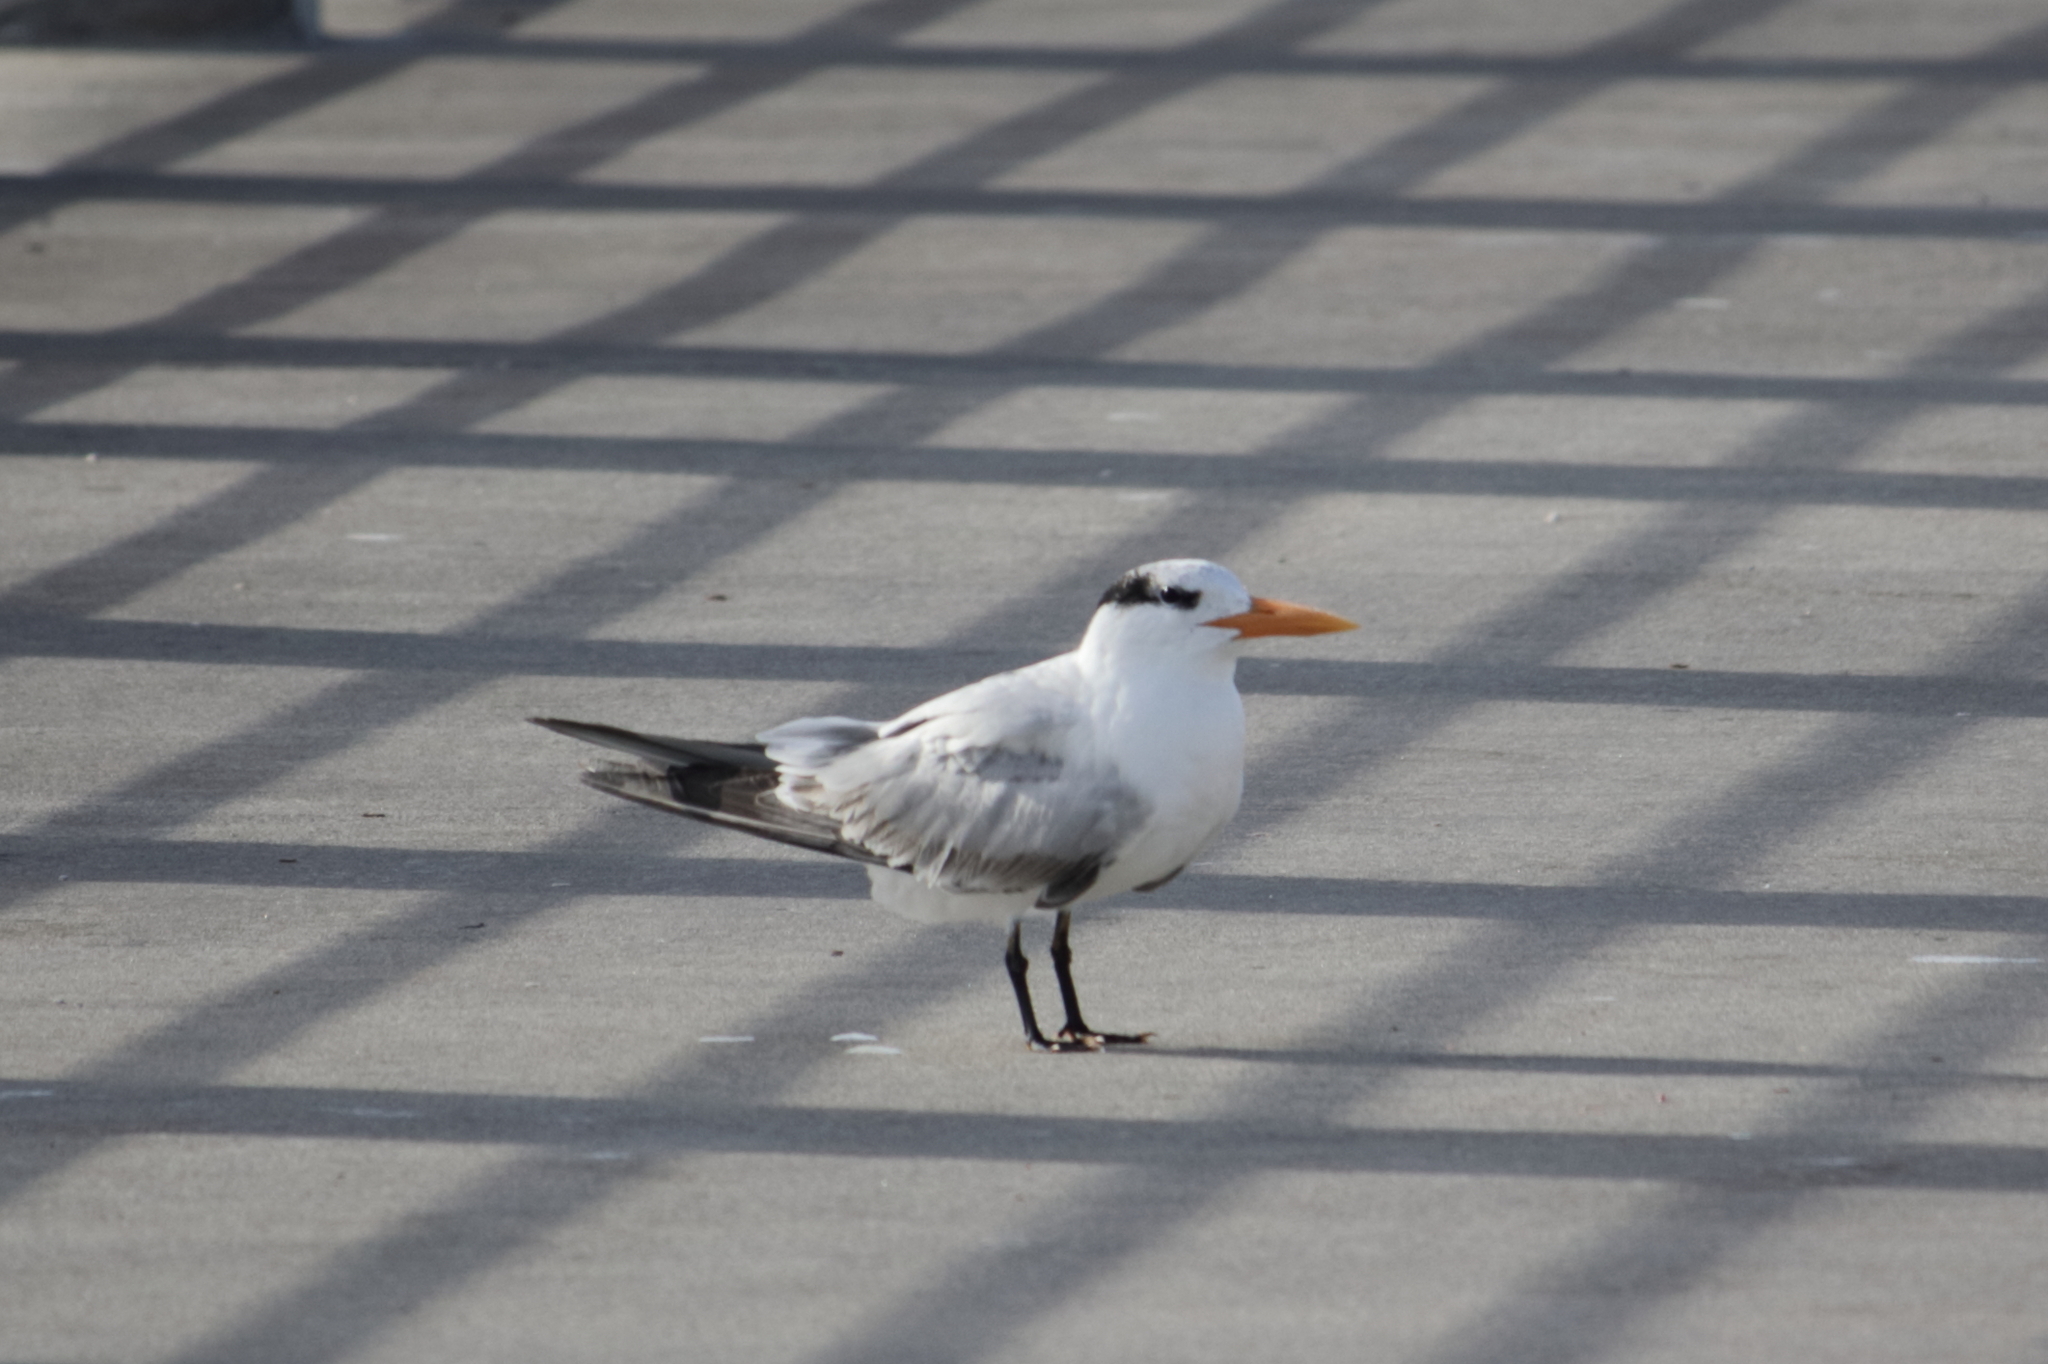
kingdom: Animalia
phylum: Chordata
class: Aves
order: Charadriiformes
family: Laridae
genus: Thalasseus
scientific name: Thalasseus maximus
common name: Royal tern
